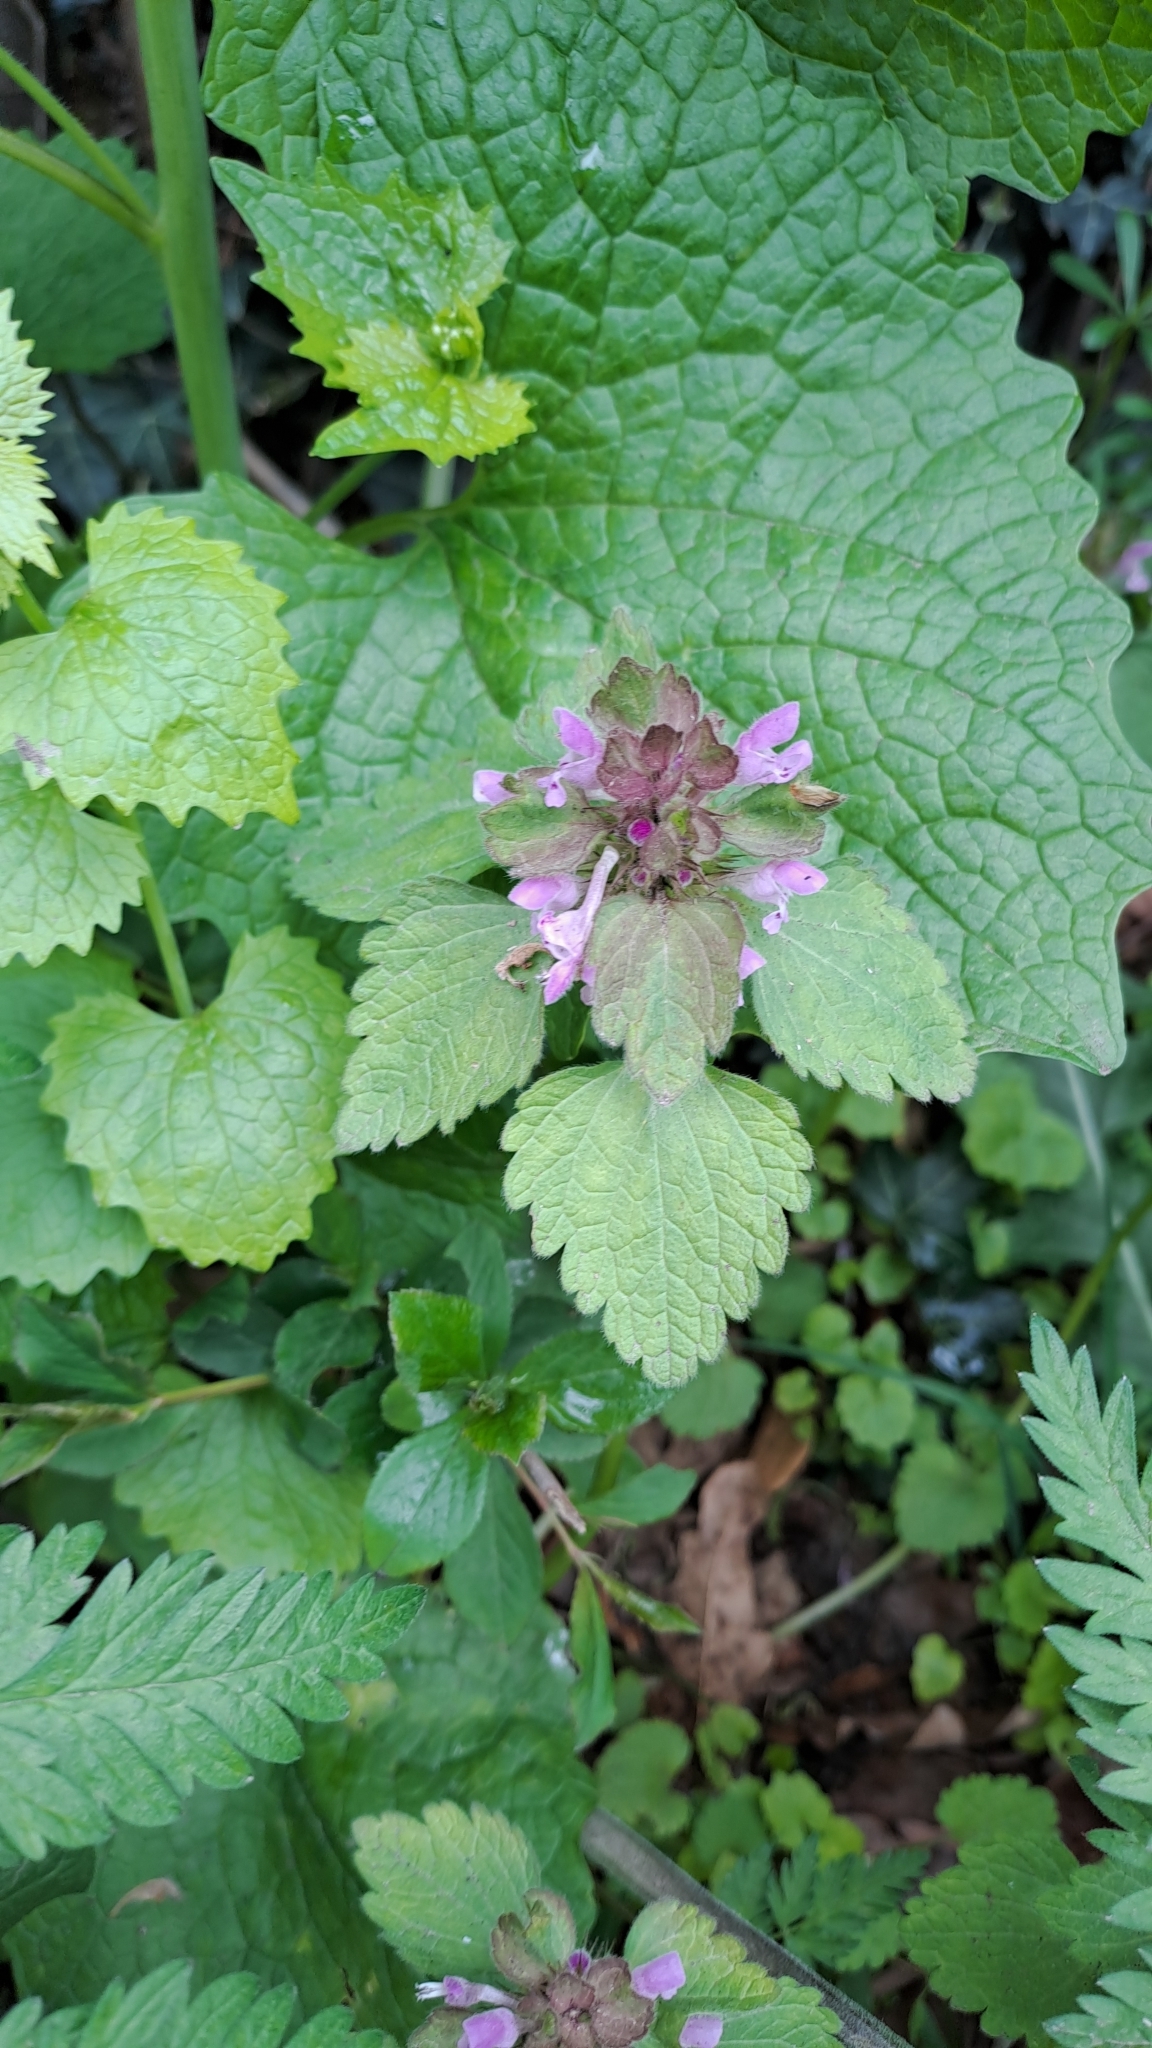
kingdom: Plantae
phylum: Tracheophyta
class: Magnoliopsida
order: Lamiales
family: Lamiaceae
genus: Lamium
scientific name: Lamium purpureum
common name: Red dead-nettle
